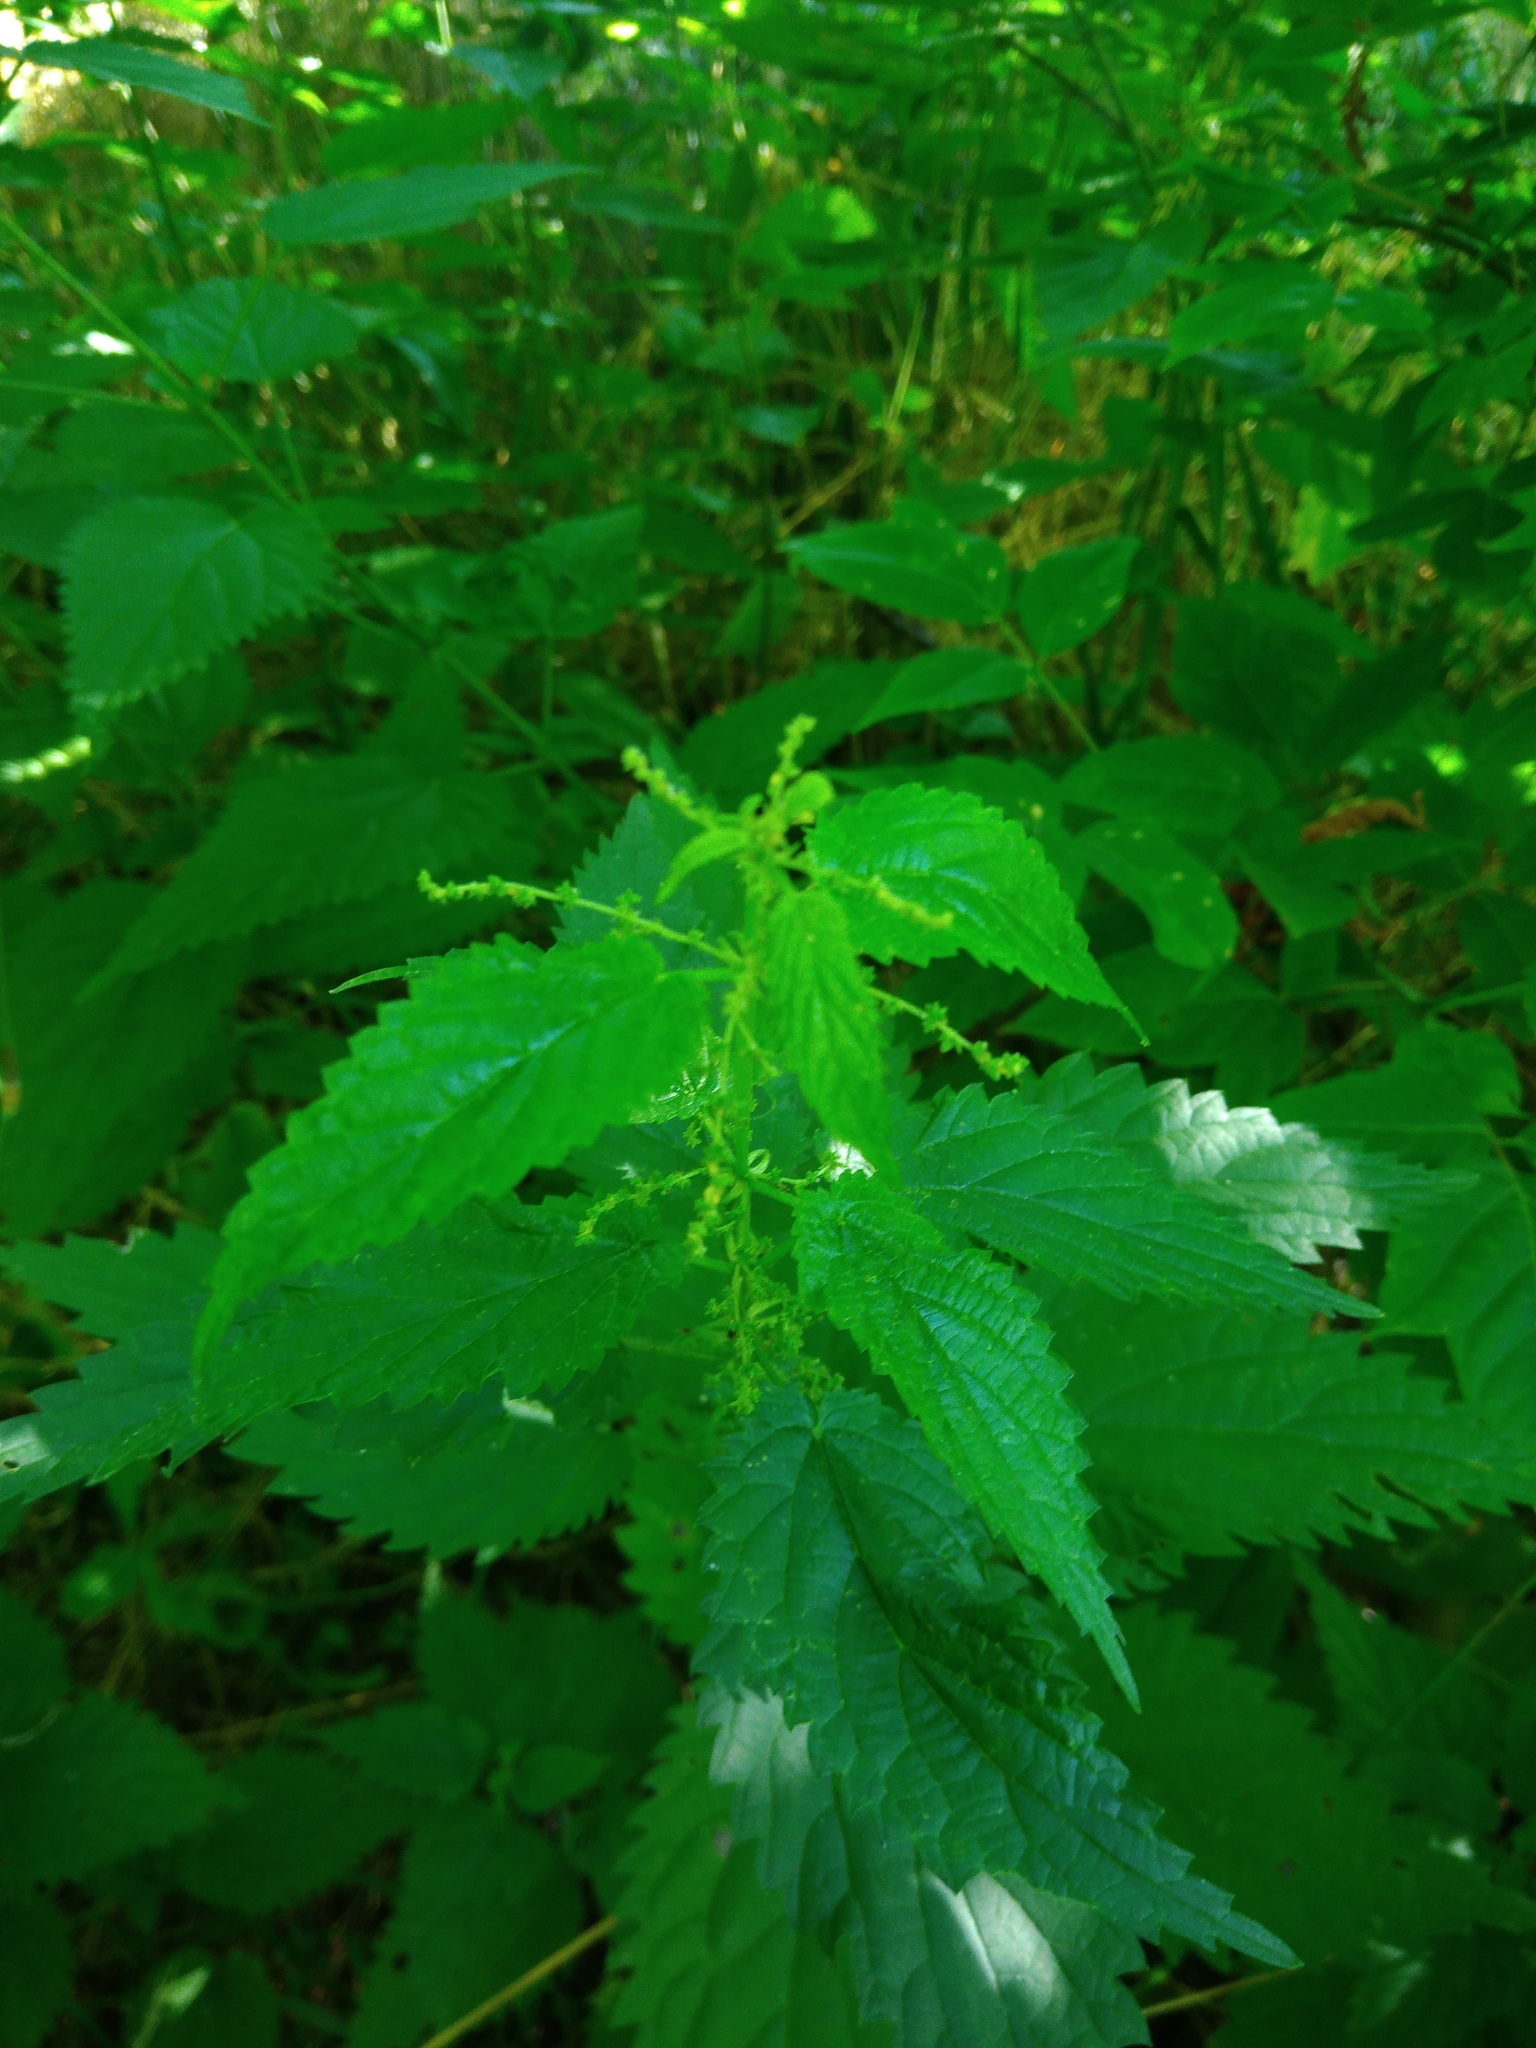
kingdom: Plantae
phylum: Tracheophyta
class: Magnoliopsida
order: Rosales
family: Urticaceae
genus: Urtica
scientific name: Urtica dioica
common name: Common nettle
